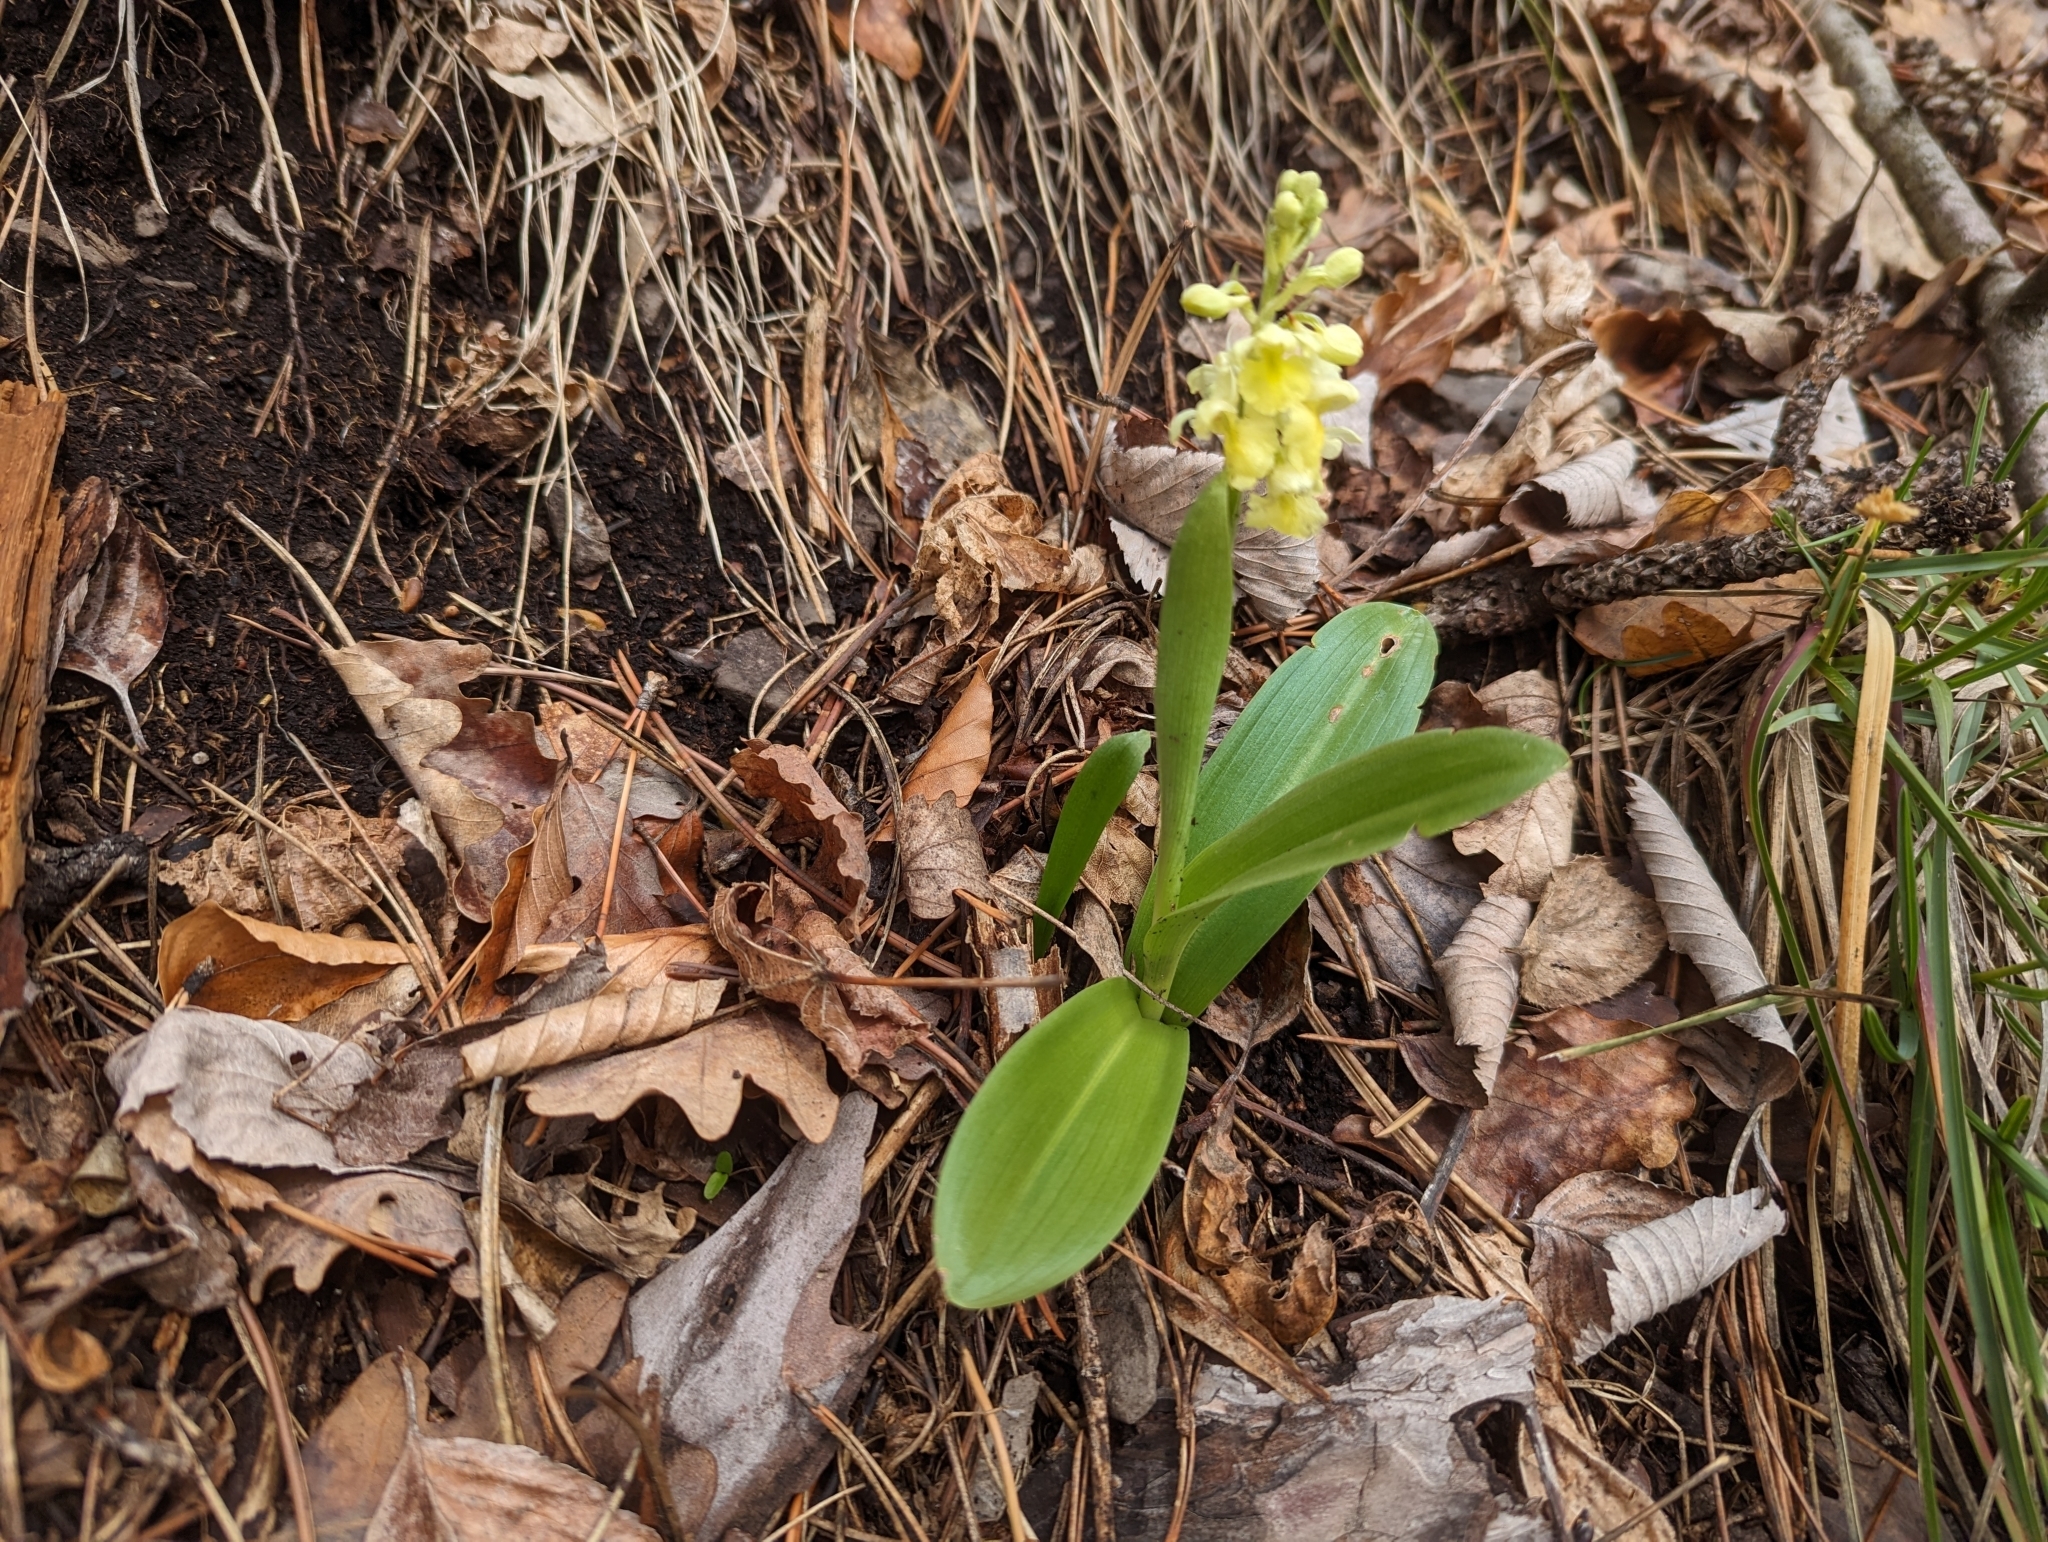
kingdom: Plantae
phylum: Tracheophyta
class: Liliopsida
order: Asparagales
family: Orchidaceae
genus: Orchis
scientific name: Orchis pallens
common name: Pale-flowered orchid
